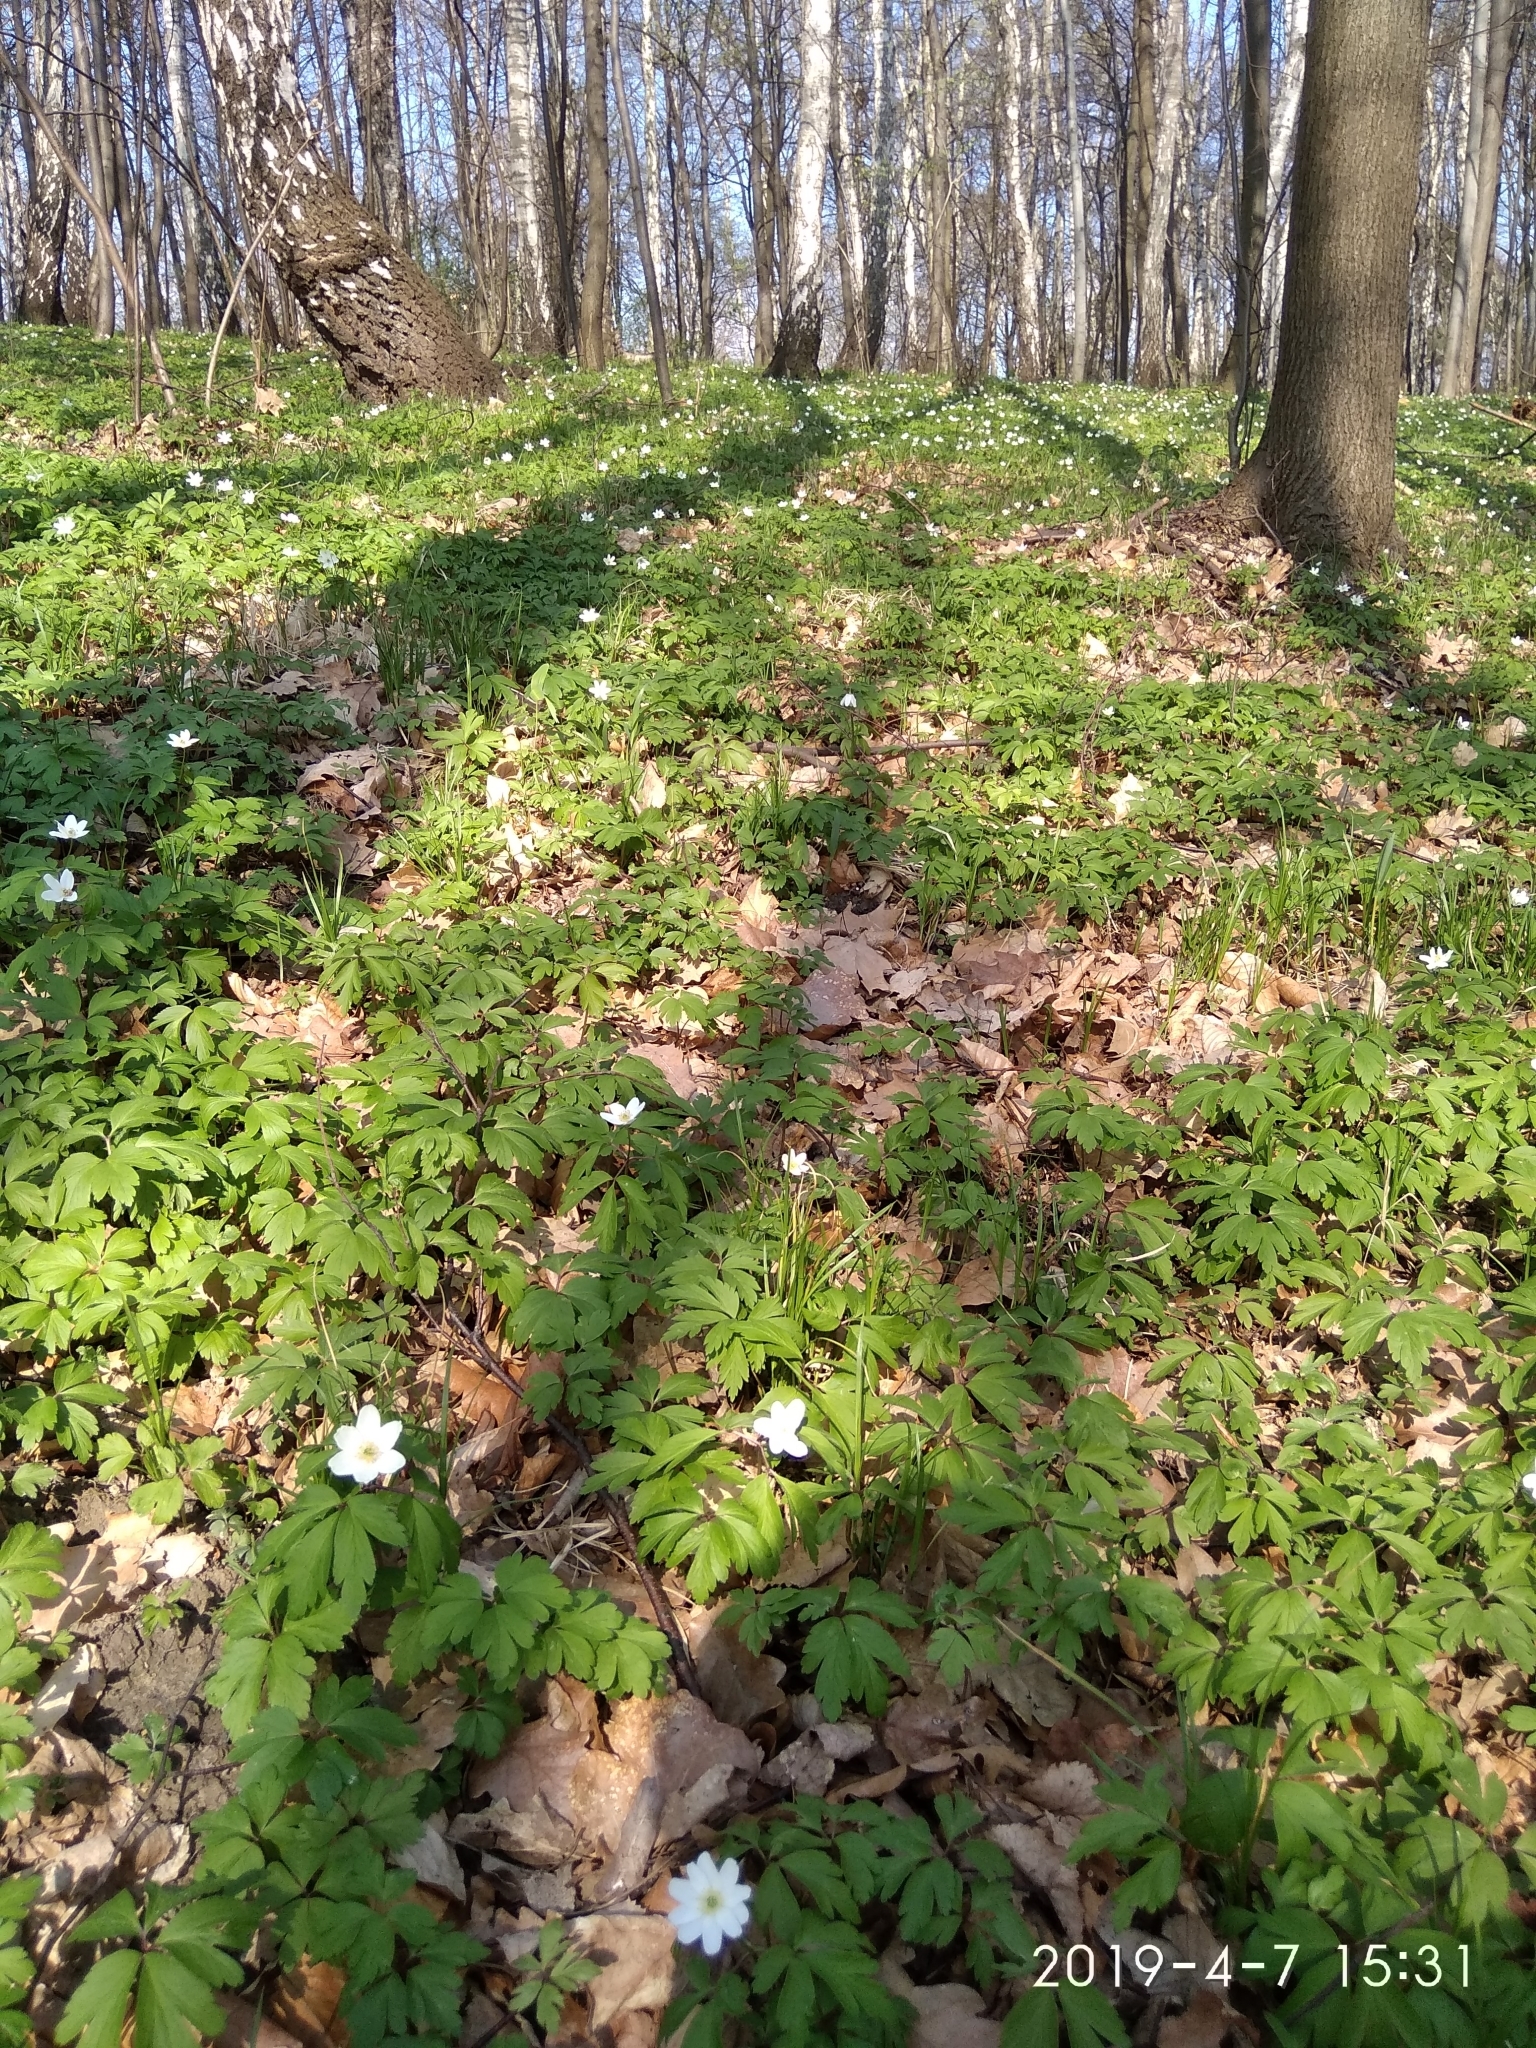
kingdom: Plantae
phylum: Tracheophyta
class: Magnoliopsida
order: Ranunculales
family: Ranunculaceae
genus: Anemone
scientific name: Anemone nemorosa
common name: Wood anemone
